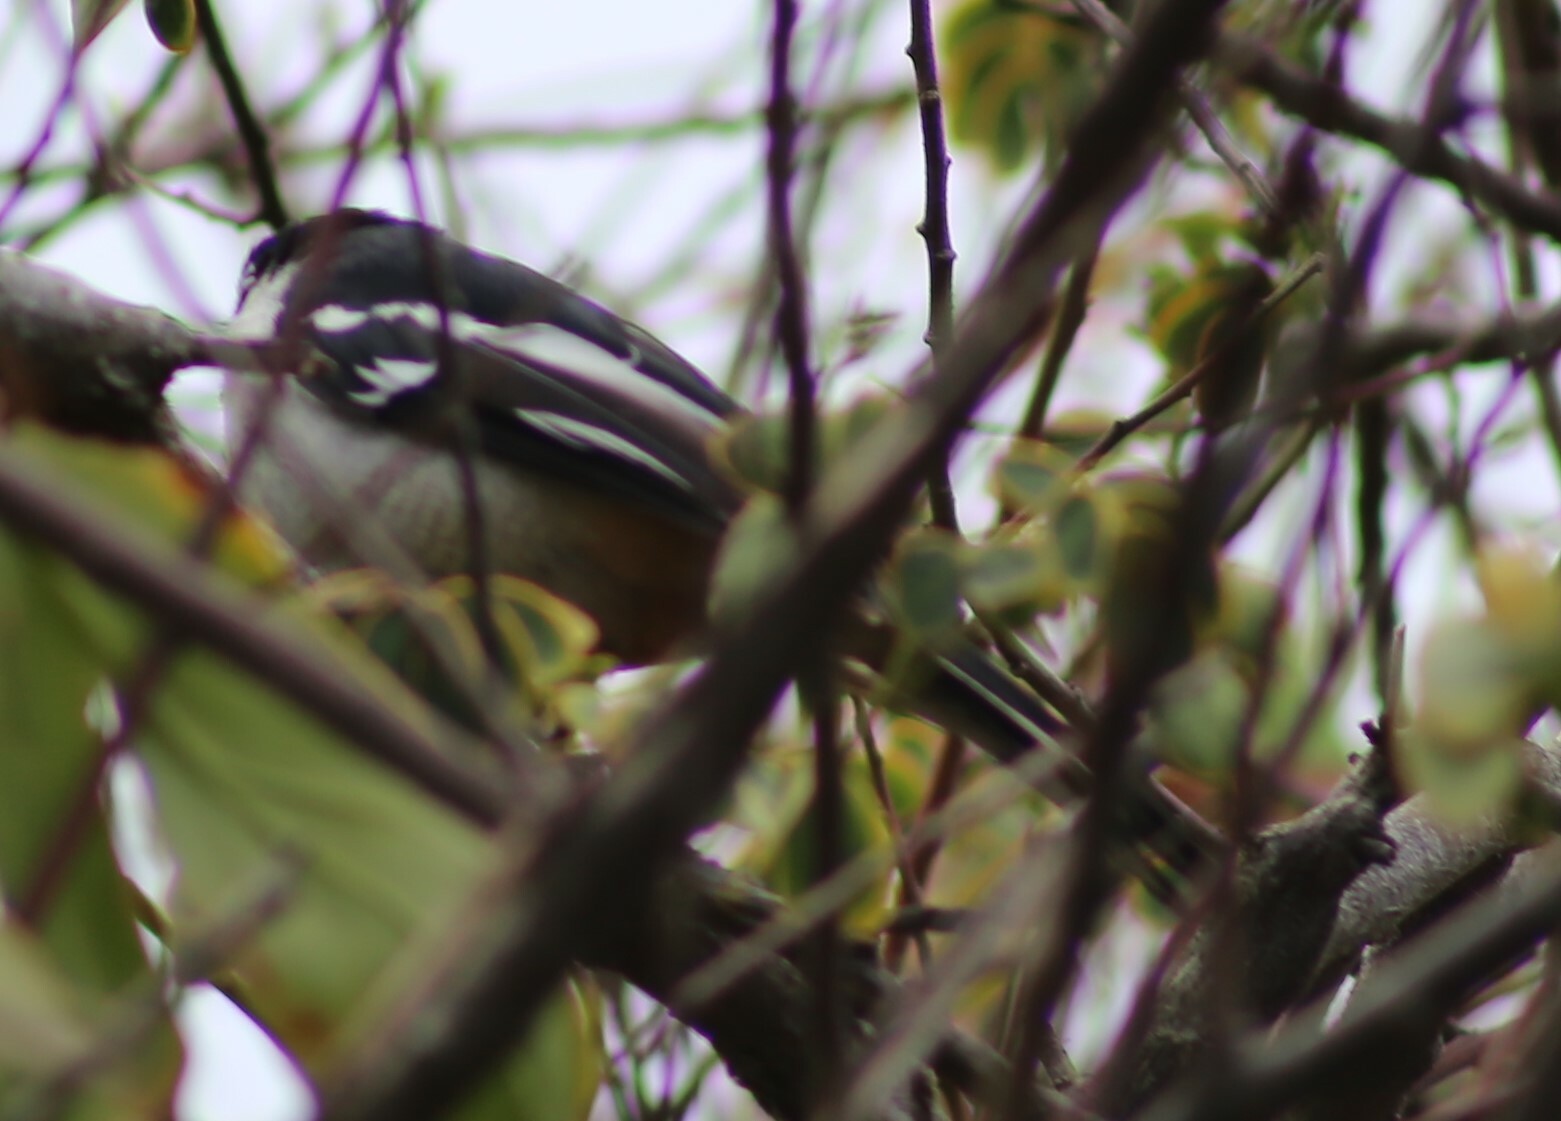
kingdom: Animalia
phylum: Chordata
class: Aves
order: Passeriformes
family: Campephagidae
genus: Lalage
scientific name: Lalage leucomela
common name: Varied triller
